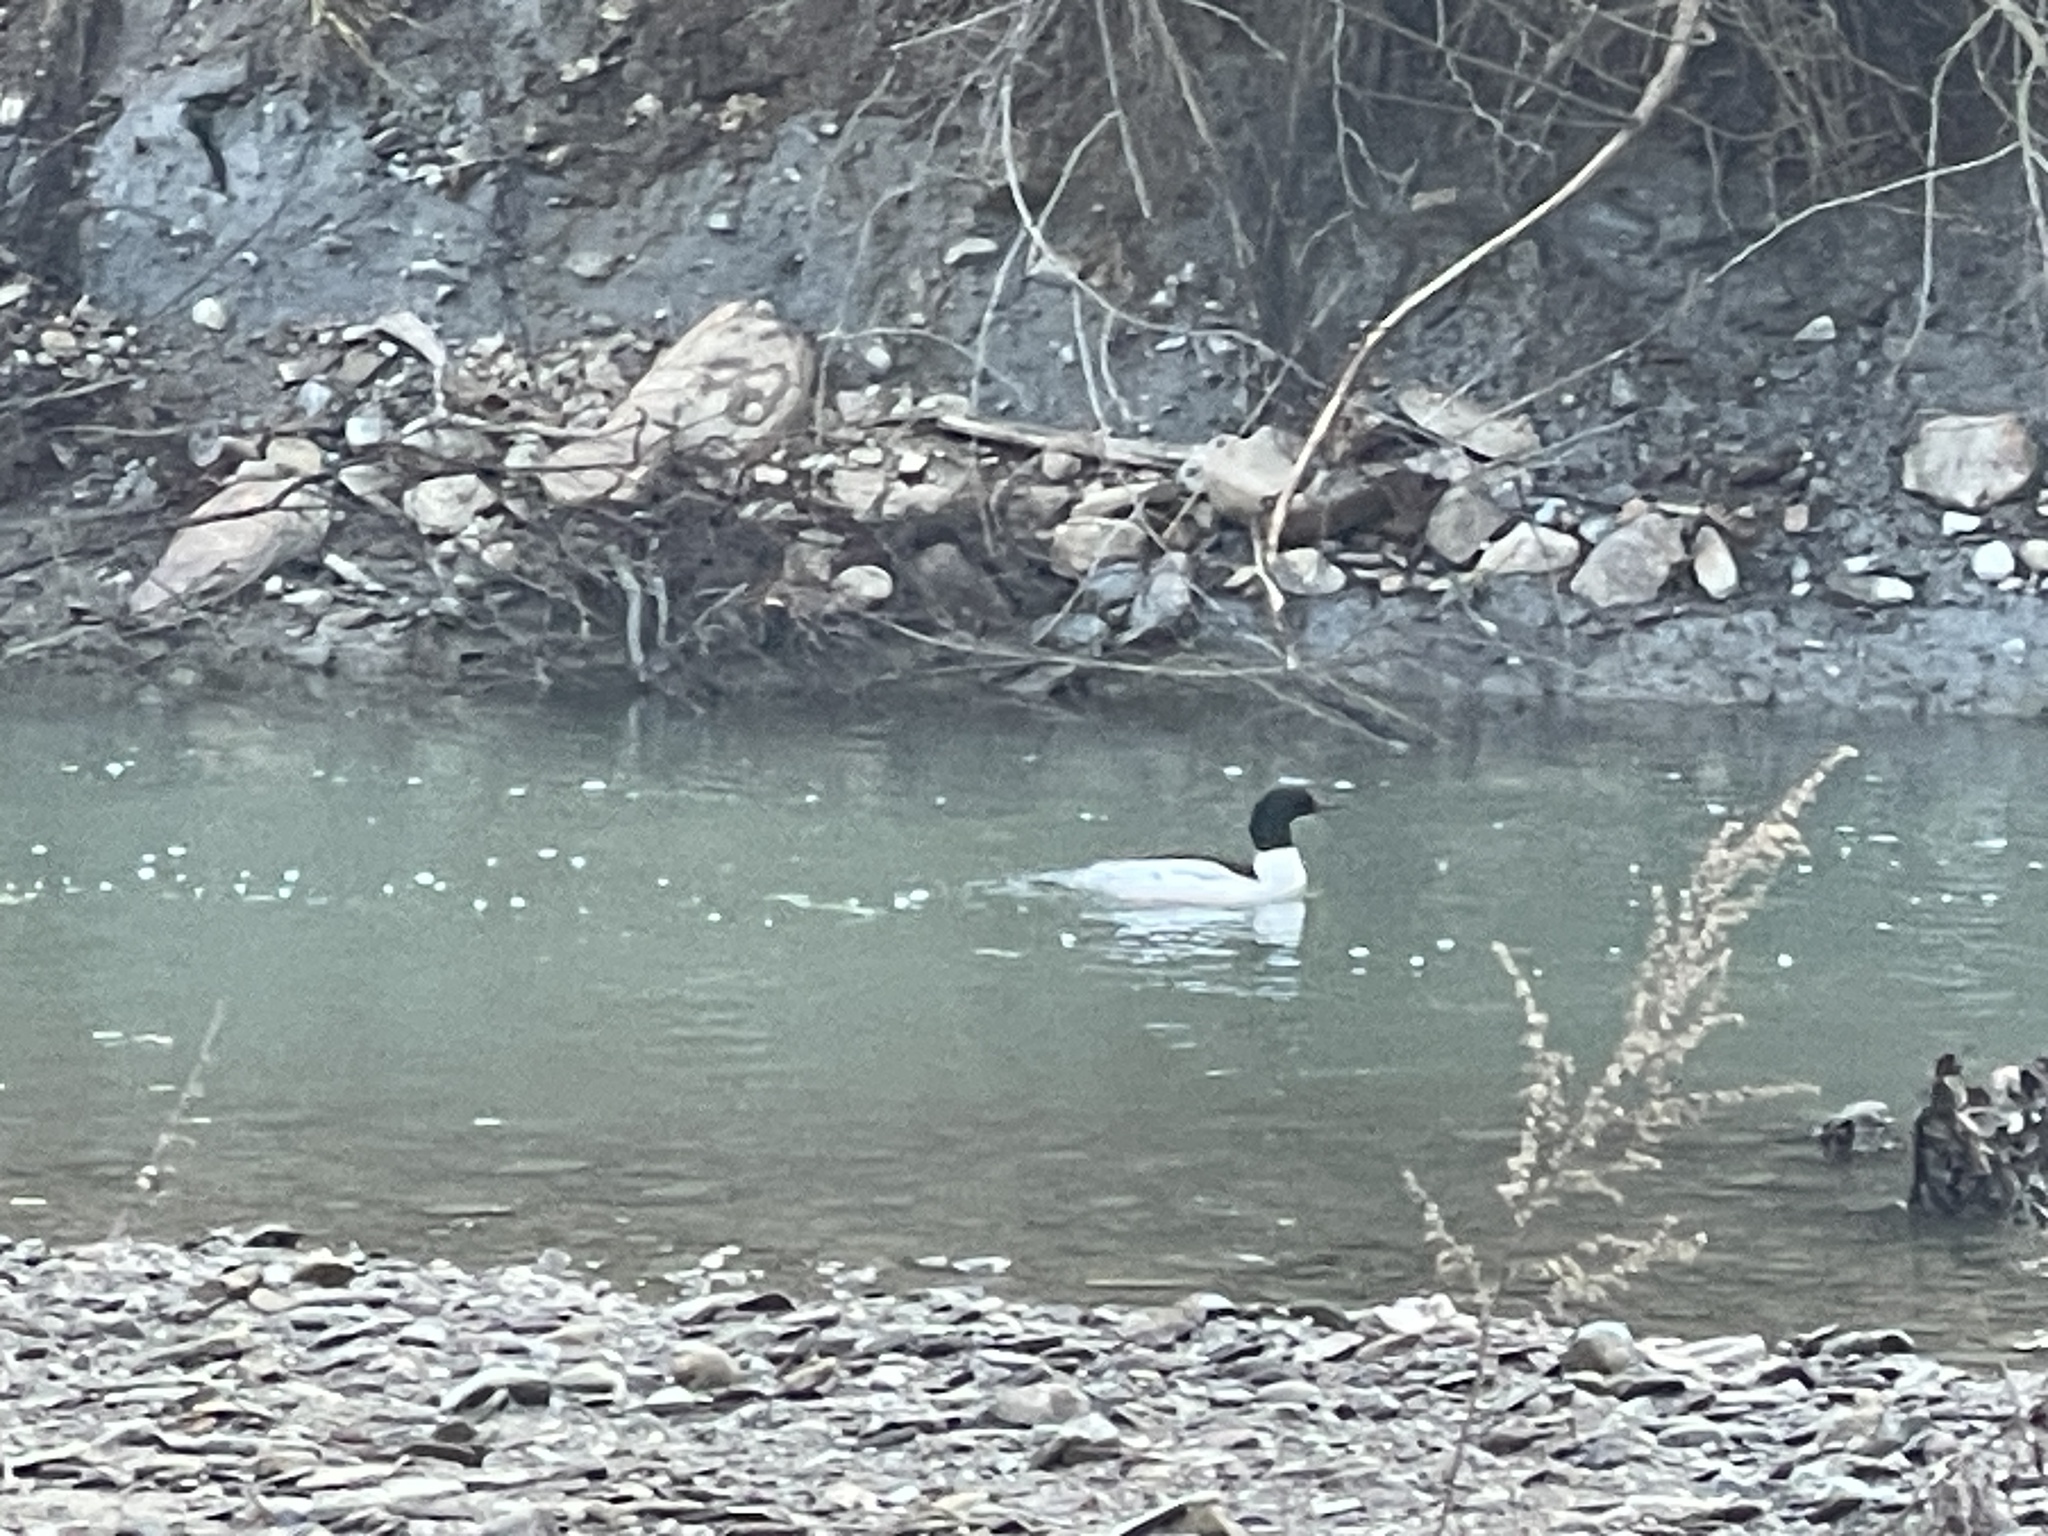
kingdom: Animalia
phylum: Chordata
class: Aves
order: Anseriformes
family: Anatidae
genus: Mergus
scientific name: Mergus merganser
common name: Common merganser
